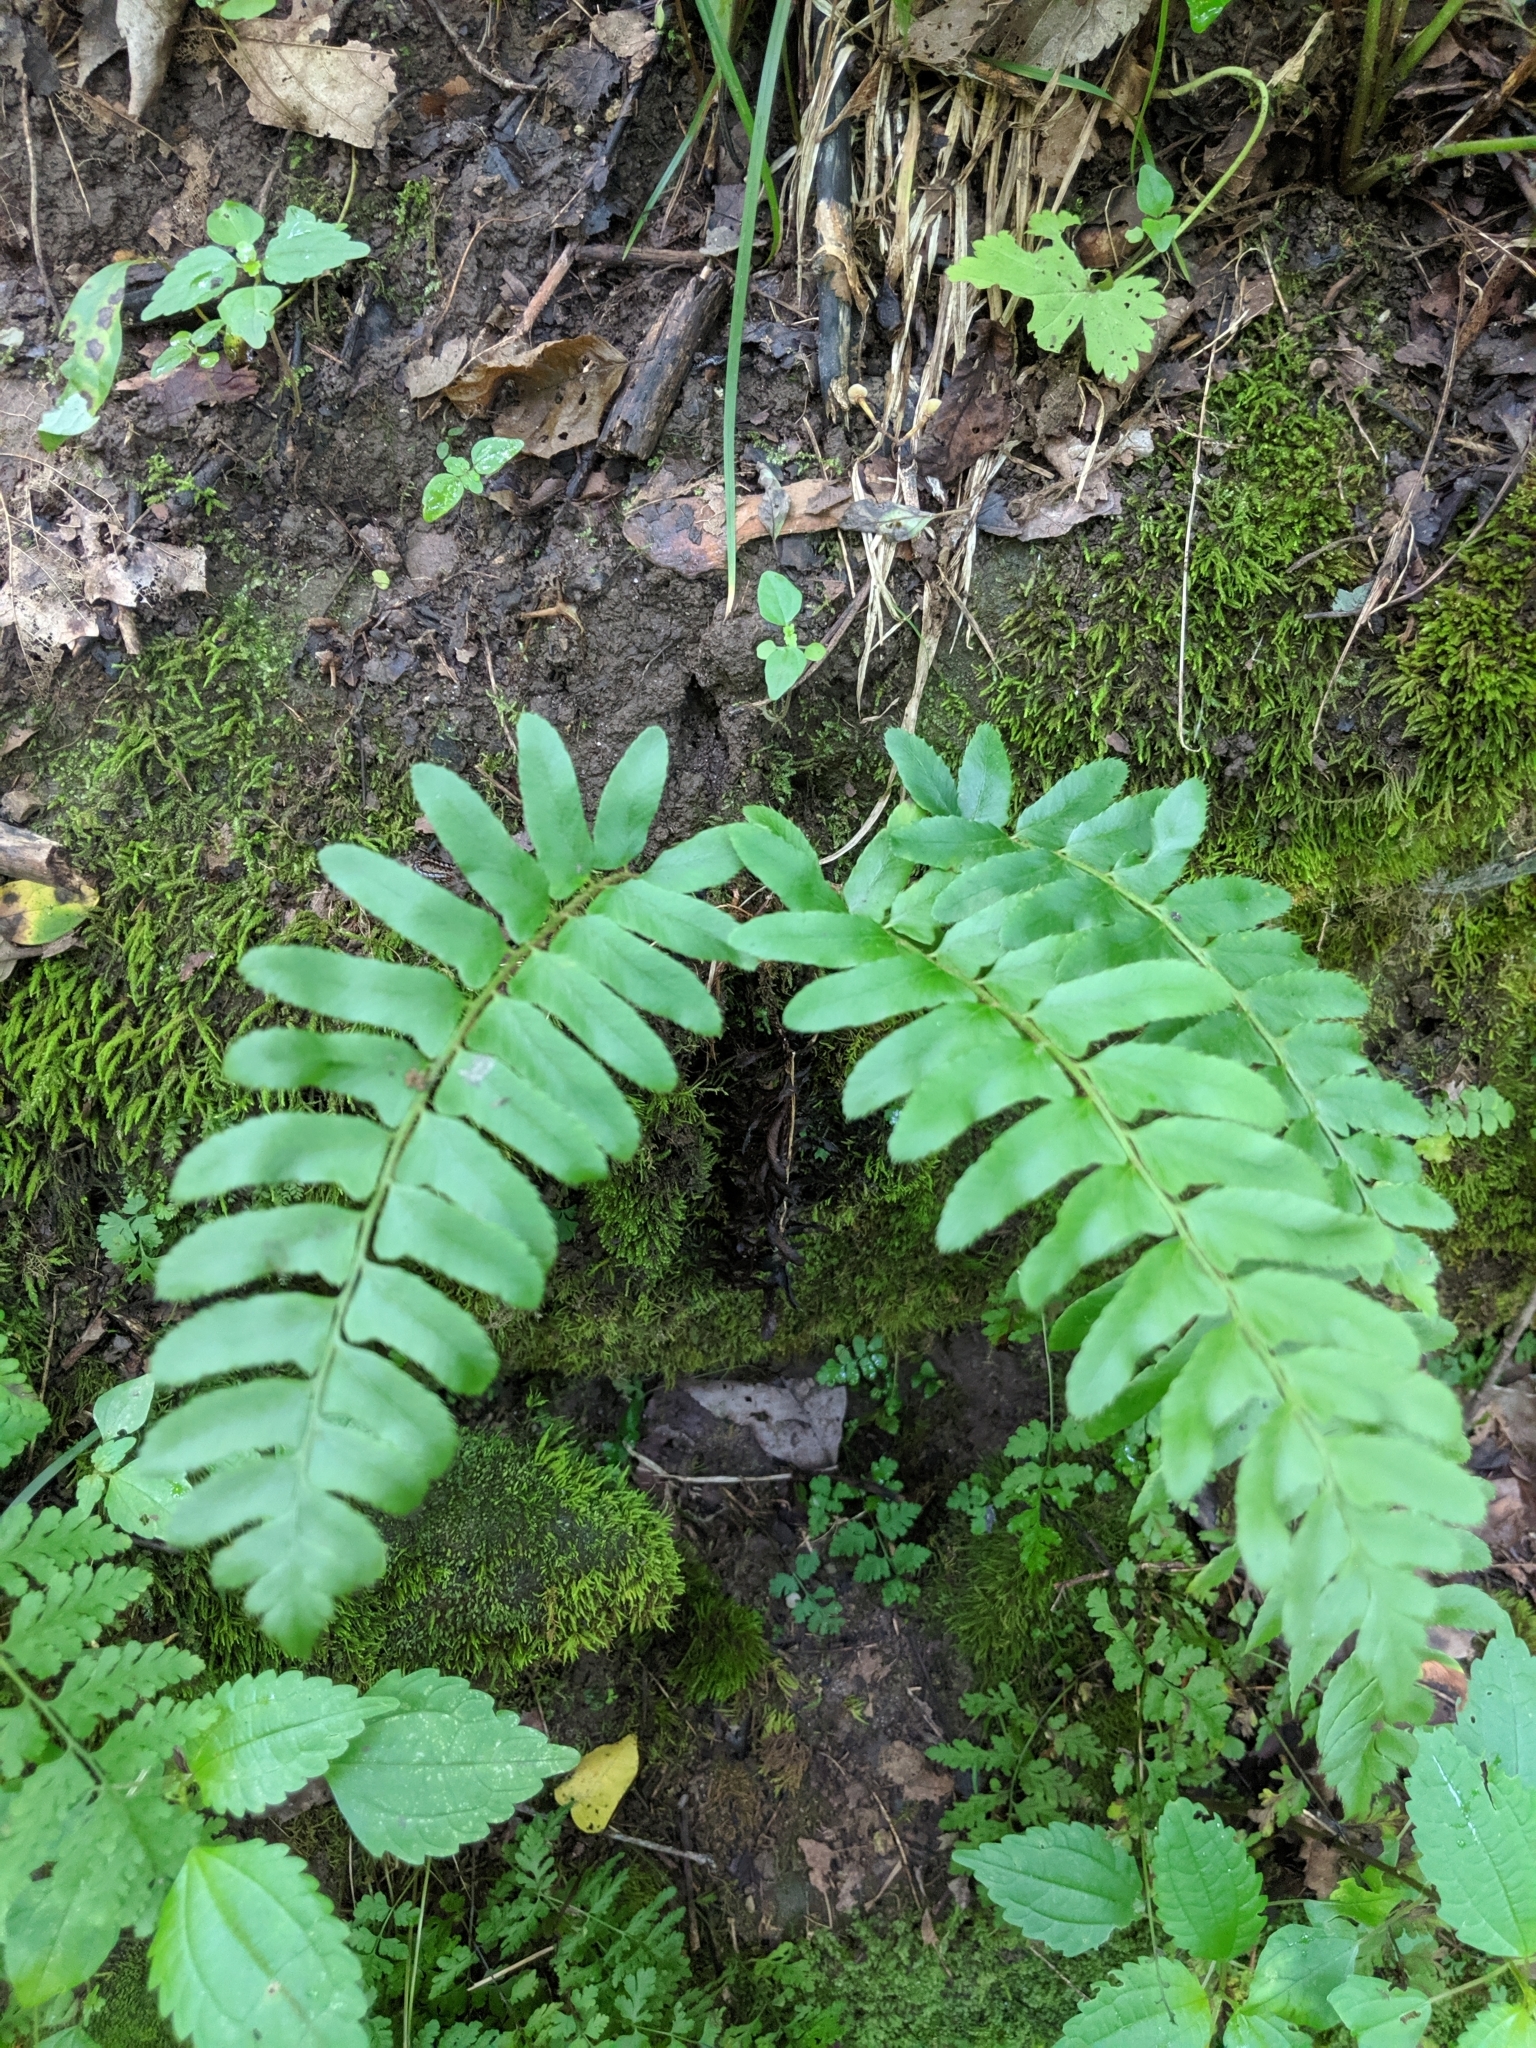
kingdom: Plantae
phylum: Tracheophyta
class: Polypodiopsida
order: Polypodiales
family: Dryopteridaceae
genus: Polystichum
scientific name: Polystichum acrostichoides
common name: Christmas fern
